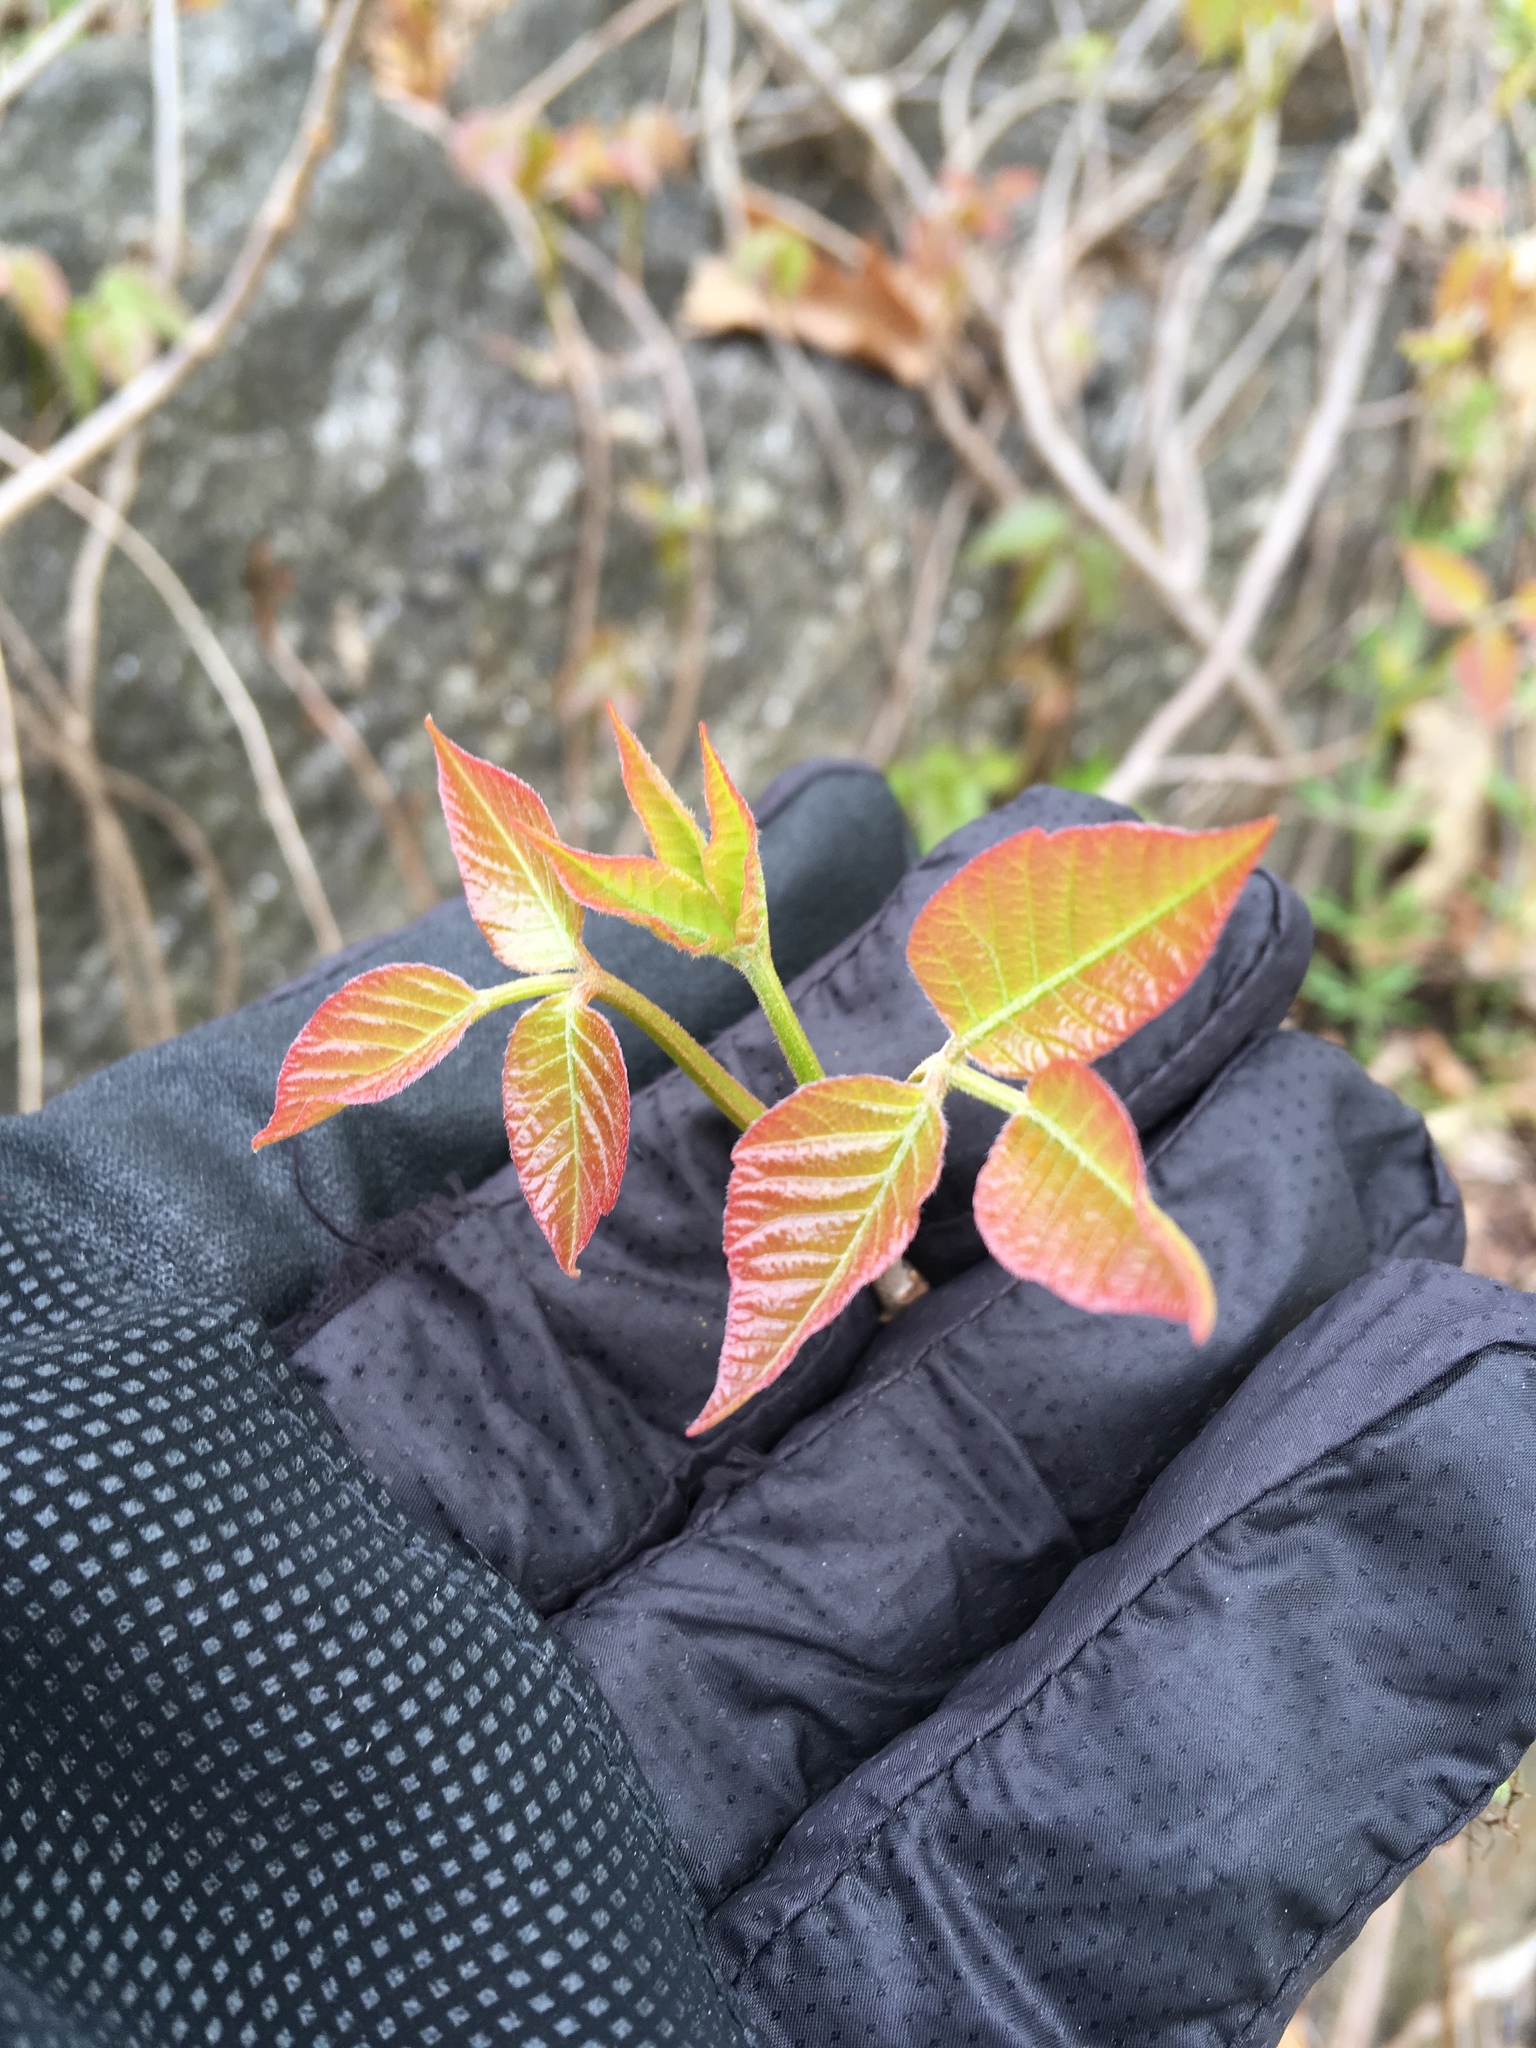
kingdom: Plantae
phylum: Tracheophyta
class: Magnoliopsida
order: Sapindales
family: Anacardiaceae
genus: Toxicodendron
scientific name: Toxicodendron radicans
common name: Poison ivy
